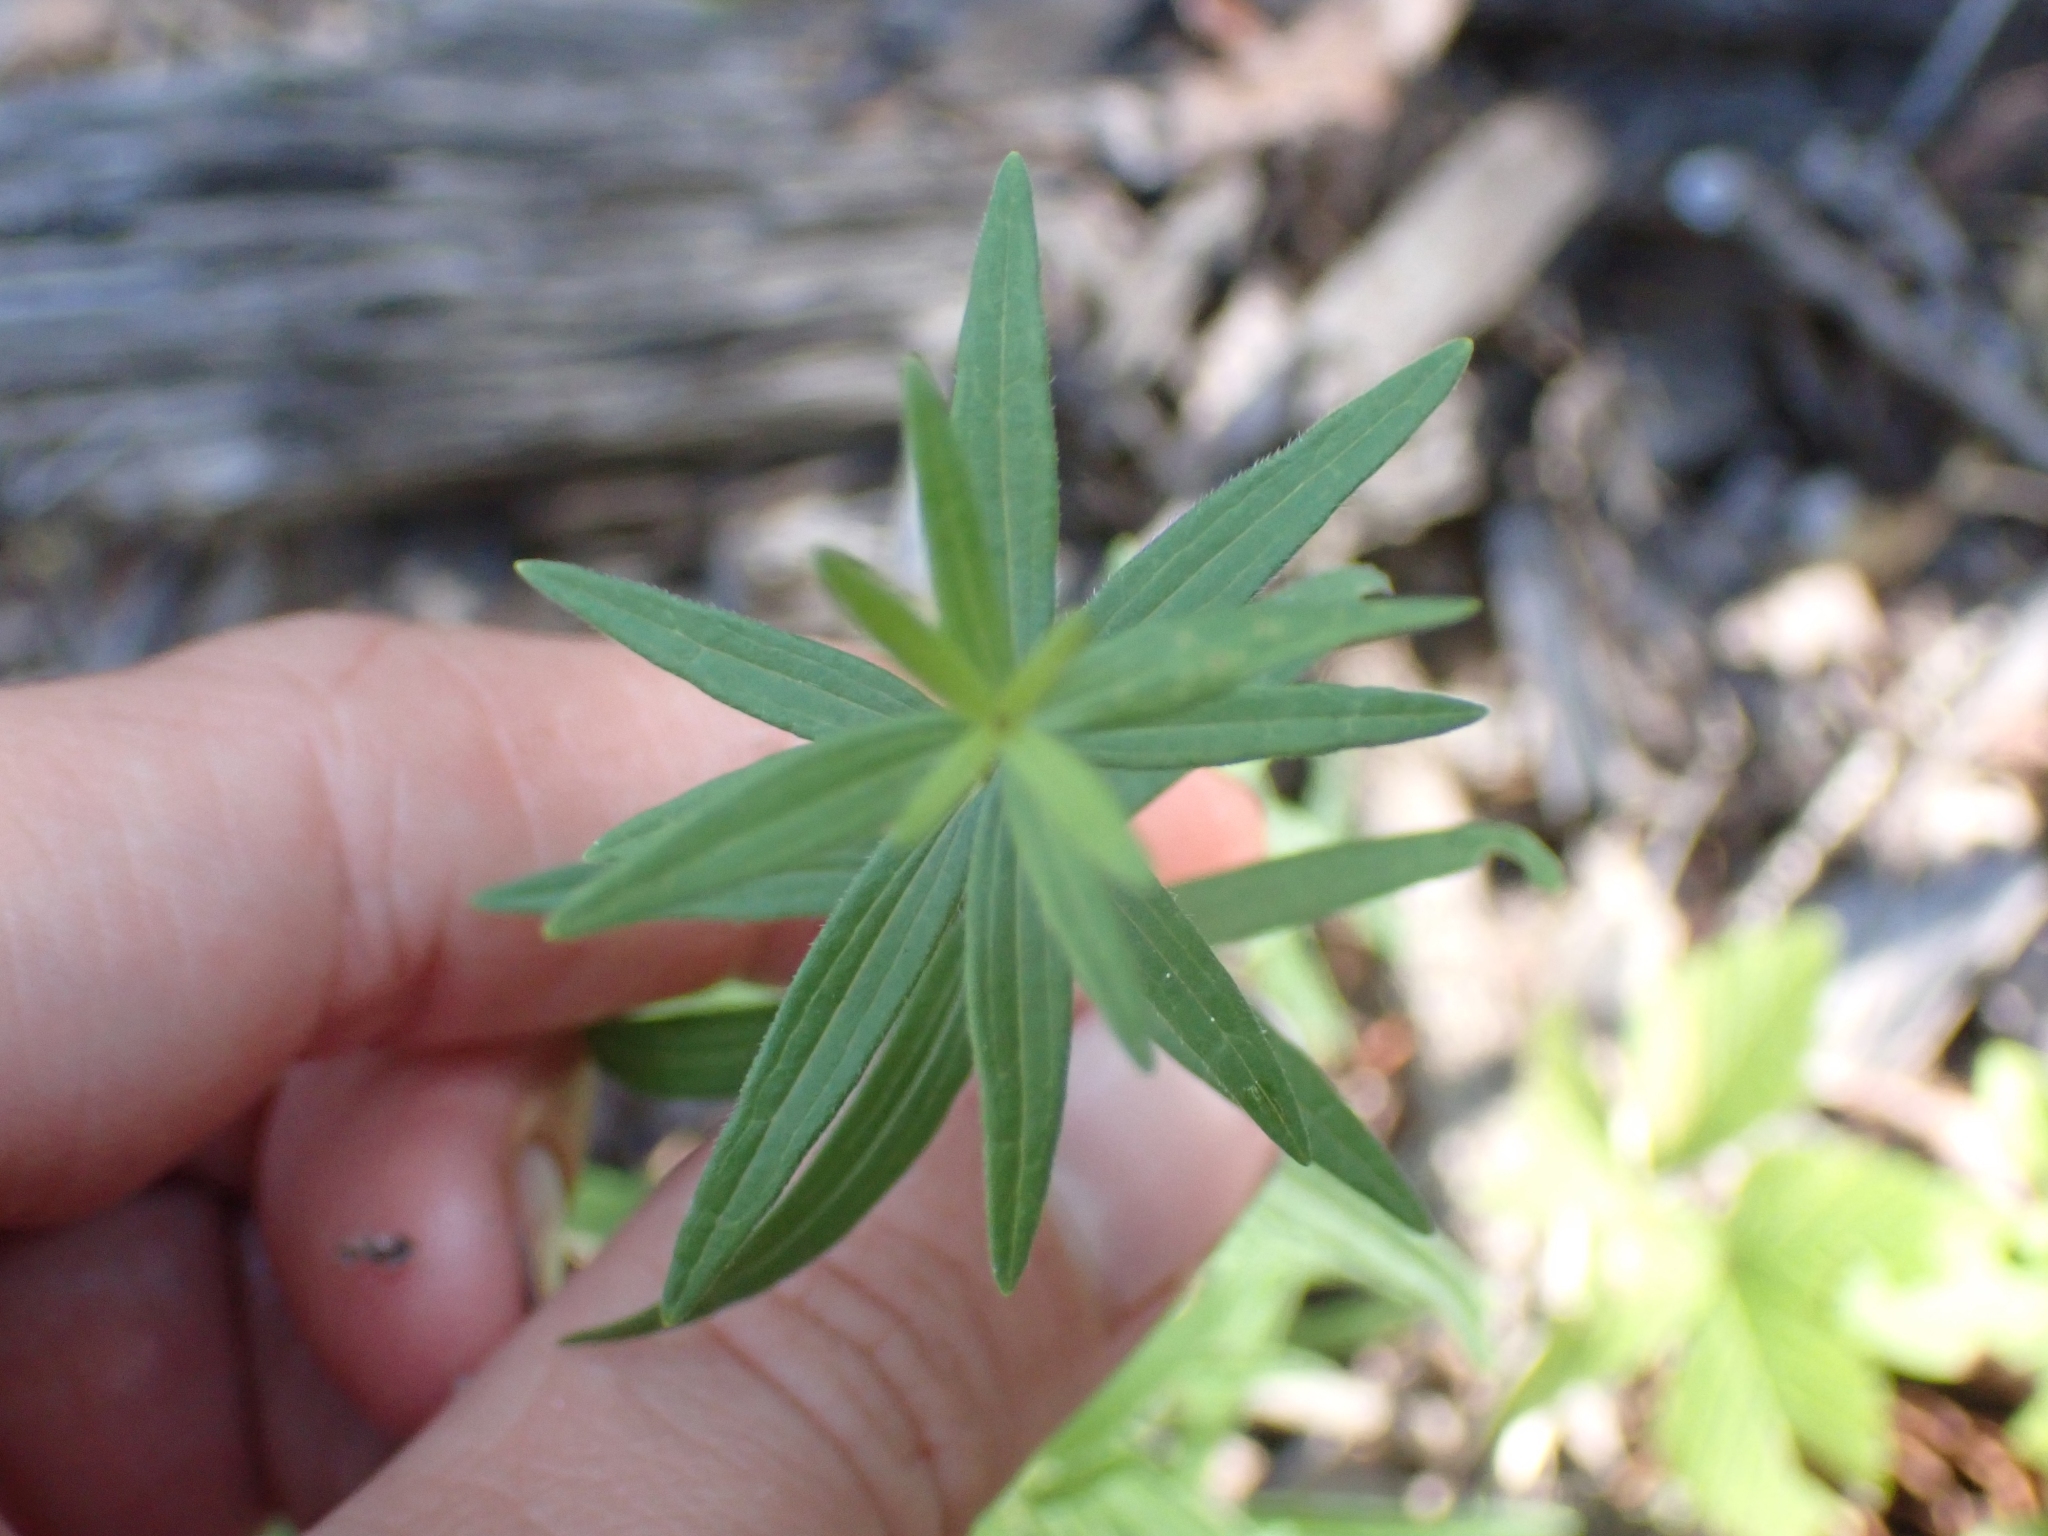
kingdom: Plantae
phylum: Tracheophyta
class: Magnoliopsida
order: Gentianales
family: Rubiaceae
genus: Galium
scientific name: Galium boreale
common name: Northern bedstraw
